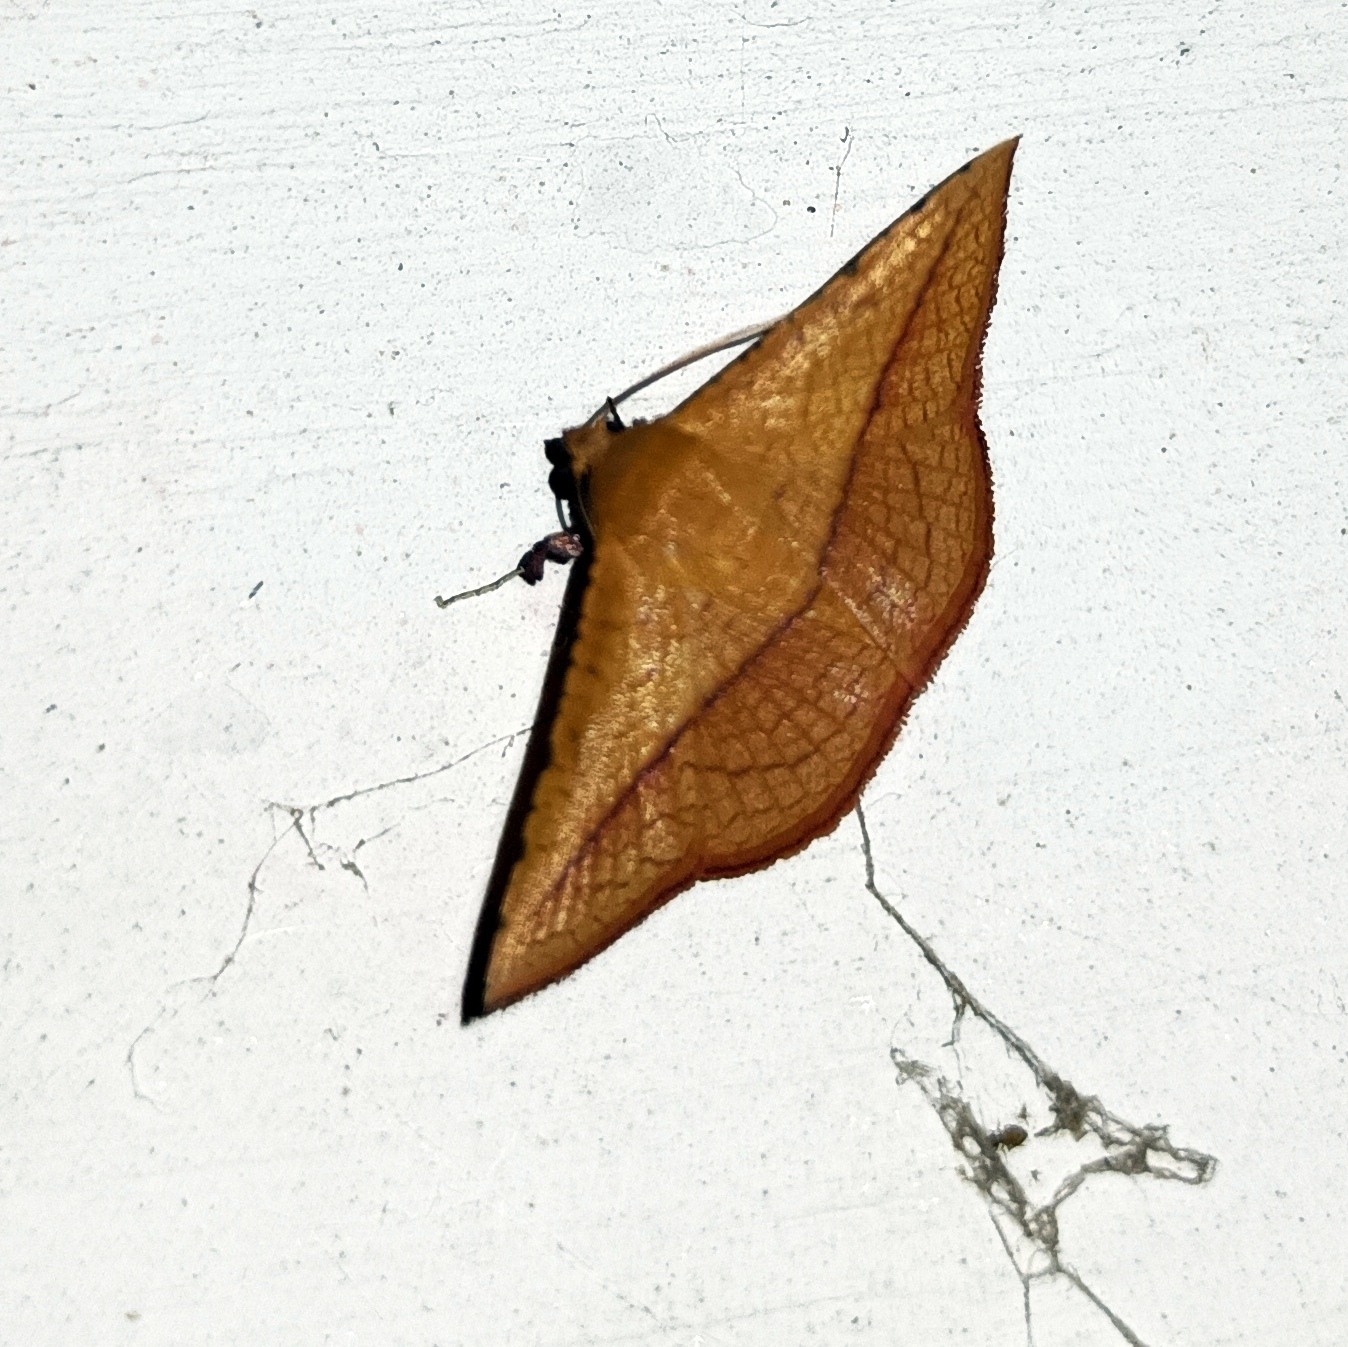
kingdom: Animalia
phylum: Arthropoda
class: Insecta
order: Lepidoptera
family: Thyrididae
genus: Striglina
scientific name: Striglina scitaria
